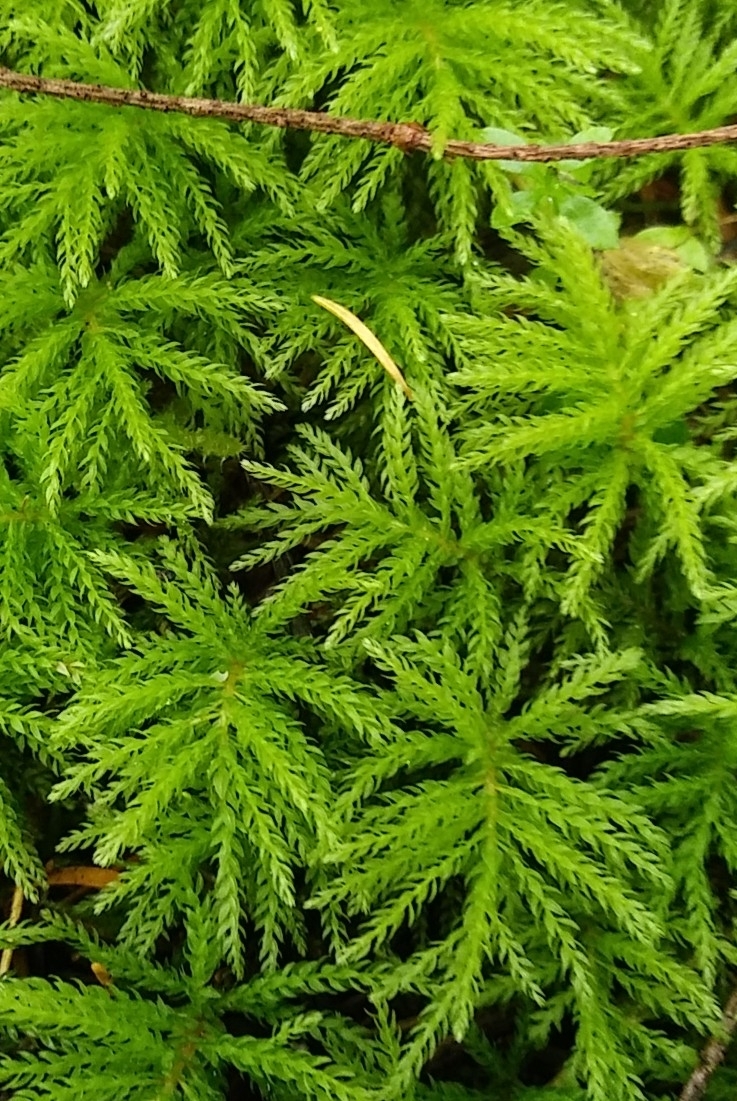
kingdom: Plantae
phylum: Bryophyta
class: Bryopsida
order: Bryales
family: Mniaceae
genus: Leucolepis
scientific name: Leucolepis acanthoneura
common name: Leucolepis umbrella moss
